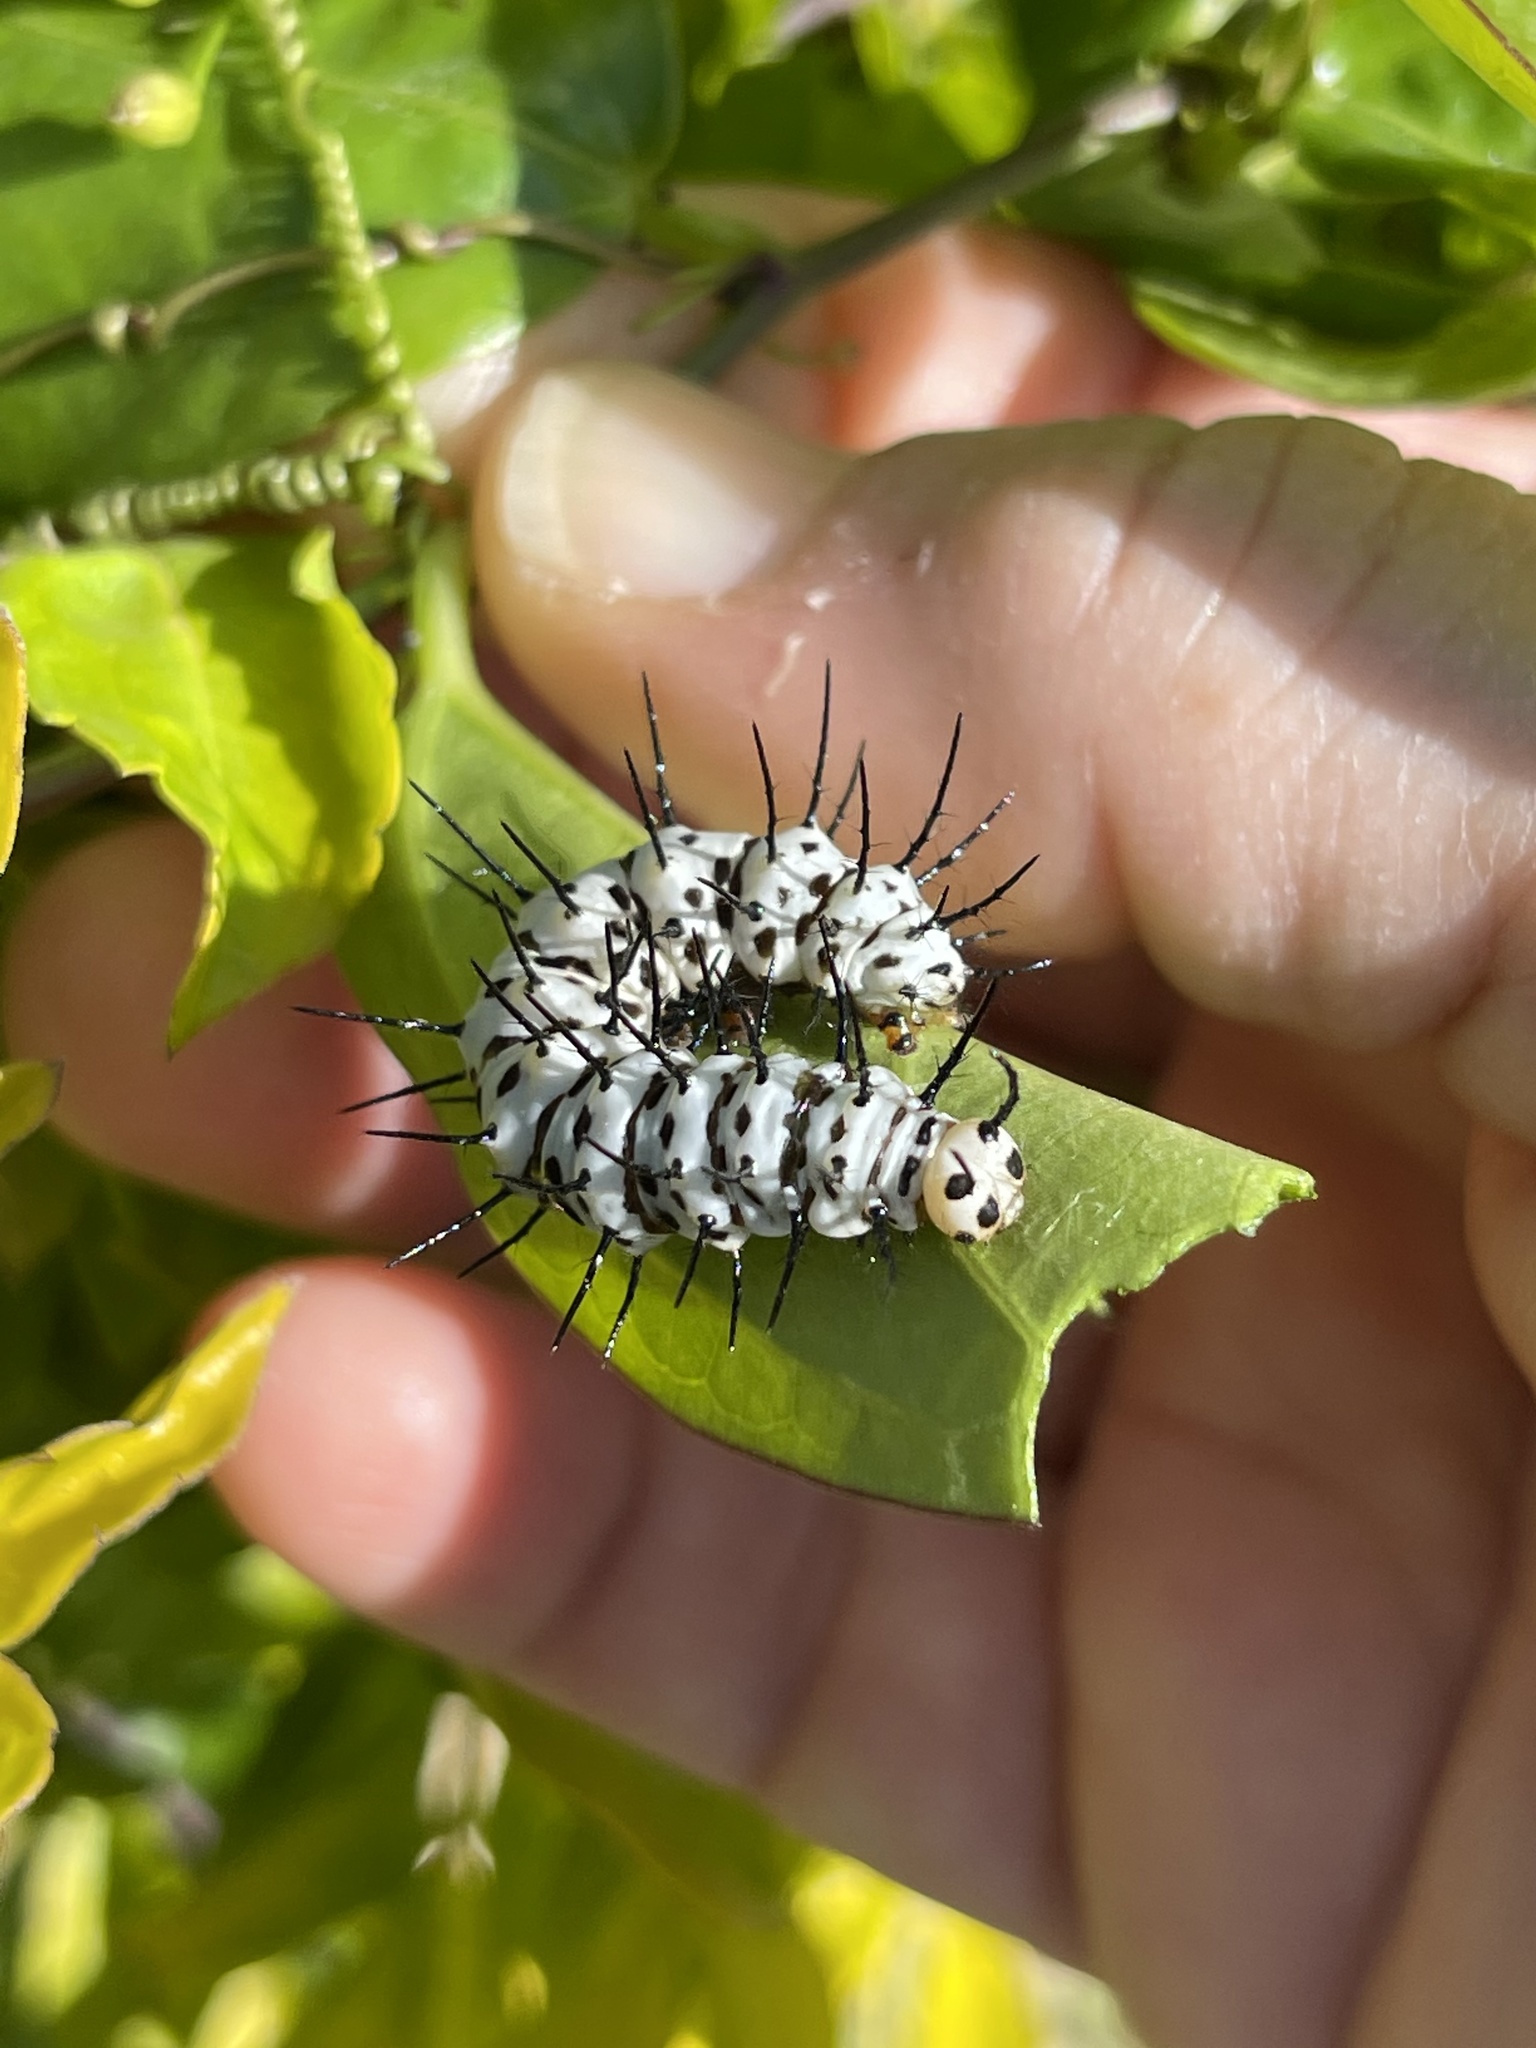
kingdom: Animalia
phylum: Arthropoda
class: Insecta
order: Lepidoptera
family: Nymphalidae
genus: Heliconius
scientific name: Heliconius charithonia
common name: Zebra long wing
